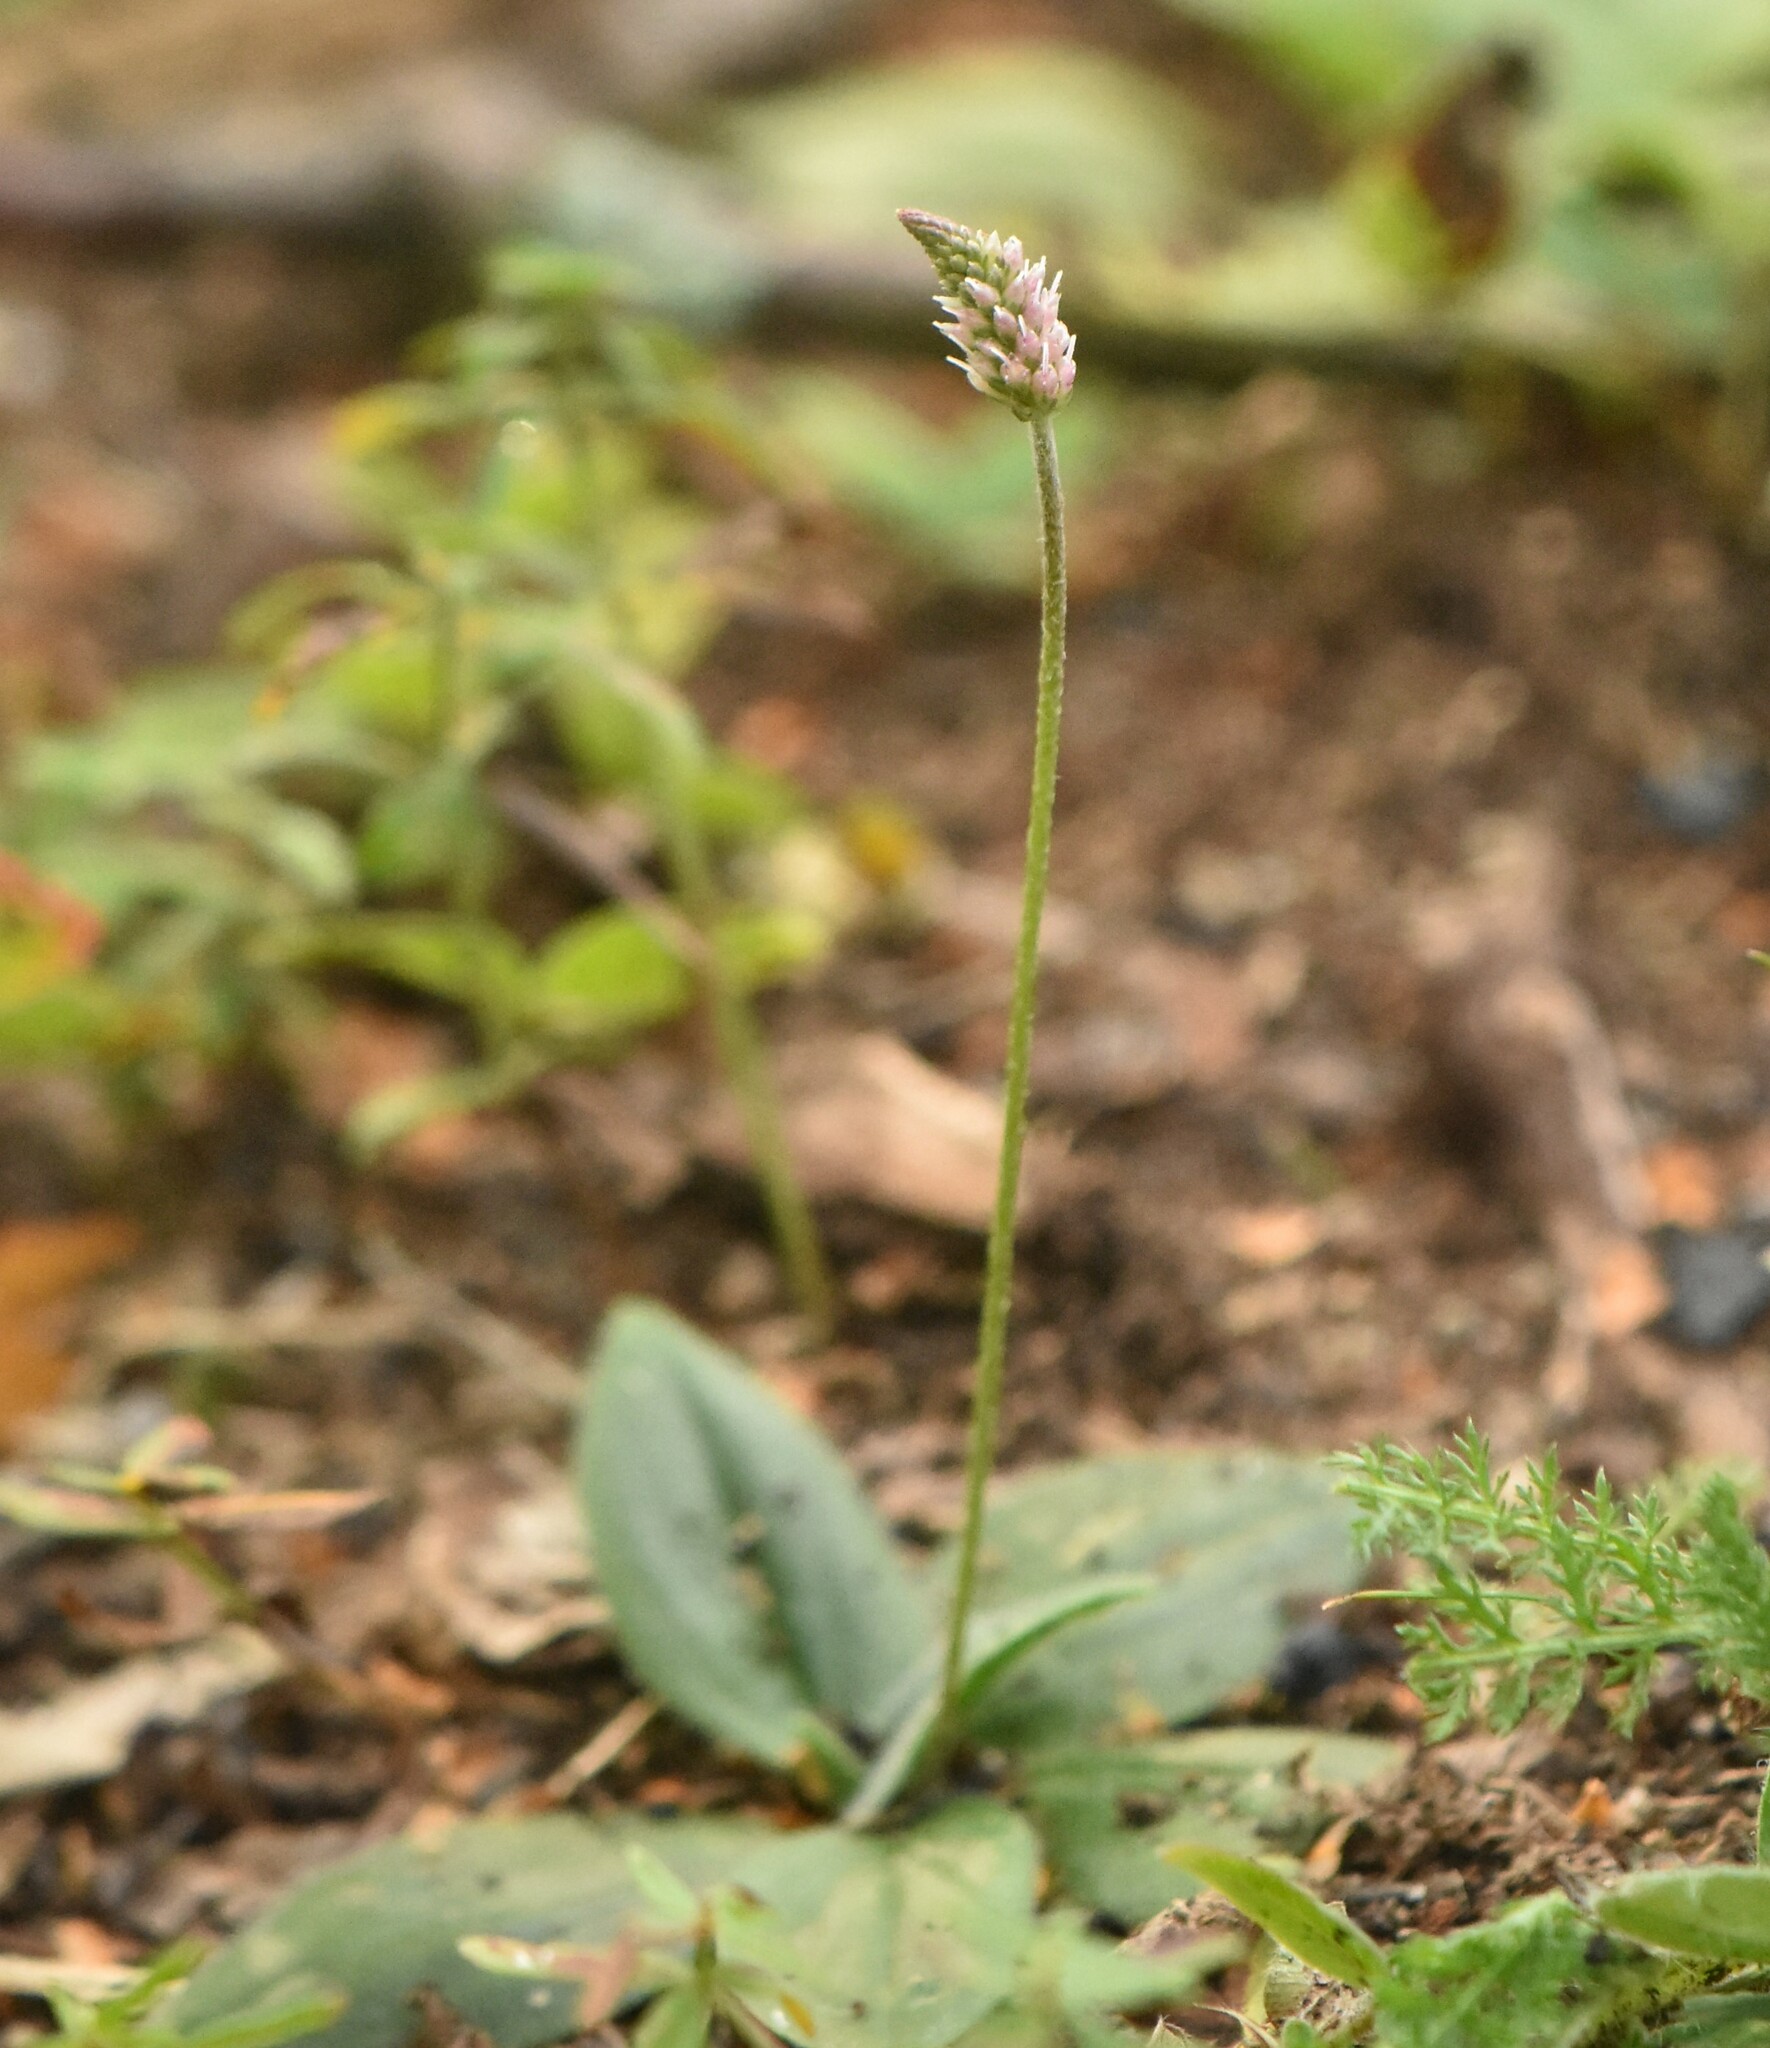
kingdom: Plantae
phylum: Tracheophyta
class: Magnoliopsida
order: Lamiales
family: Plantaginaceae
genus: Plantago
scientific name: Plantago media
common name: Hoary plantain
